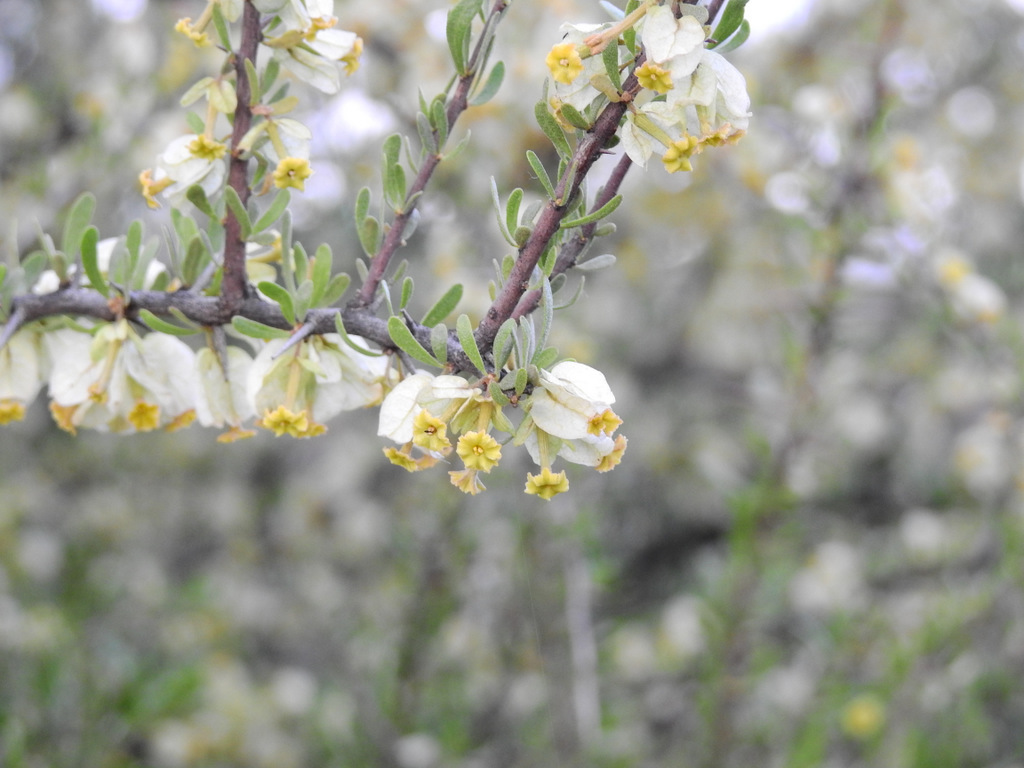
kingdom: Plantae
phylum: Tracheophyta
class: Magnoliopsida
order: Caryophyllales
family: Nyctaginaceae
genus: Bougainvillea
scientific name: Bougainvillea spinosa
